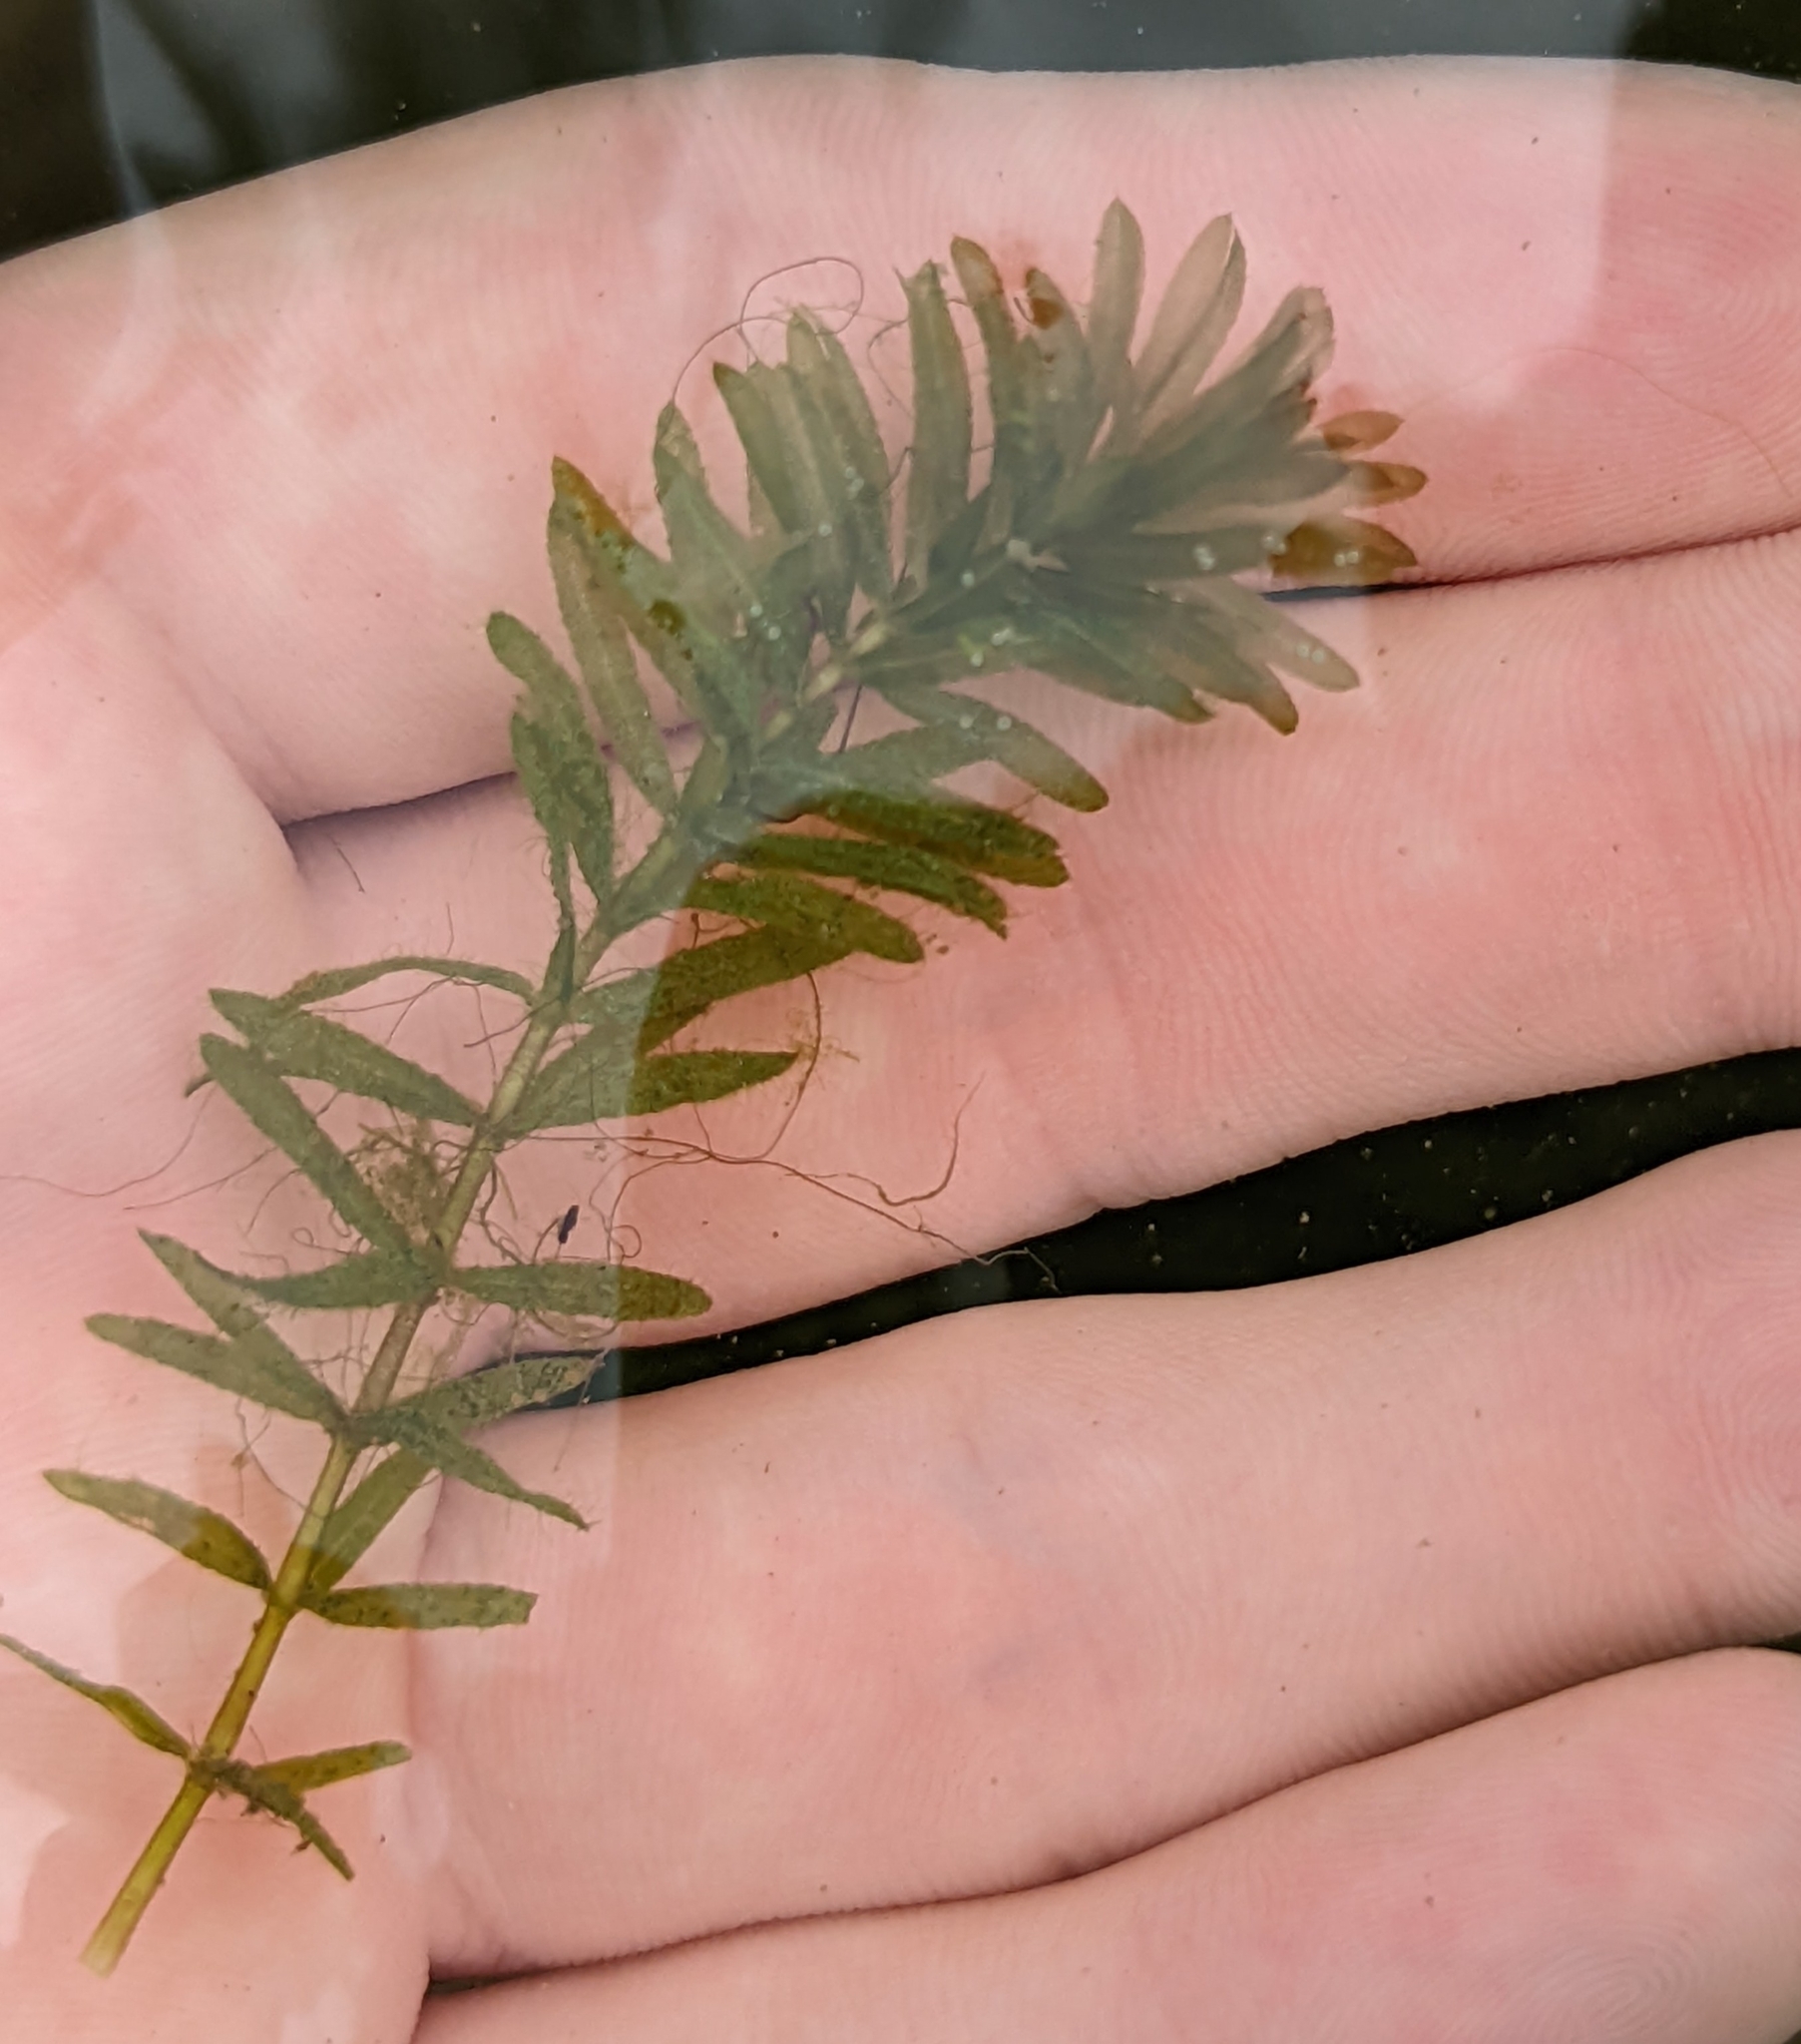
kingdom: Plantae
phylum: Tracheophyta
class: Liliopsida
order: Alismatales
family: Hydrocharitaceae
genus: Hydrilla
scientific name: Hydrilla verticillata
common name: Florida-elodea
